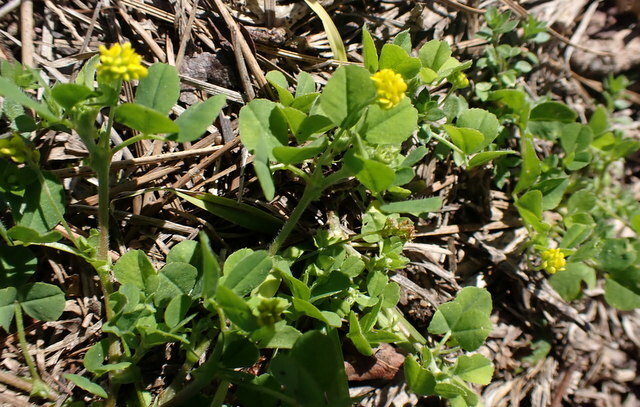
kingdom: Plantae
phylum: Tracheophyta
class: Magnoliopsida
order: Fabales
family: Fabaceae
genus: Medicago
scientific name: Medicago lupulina
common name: Black medick
